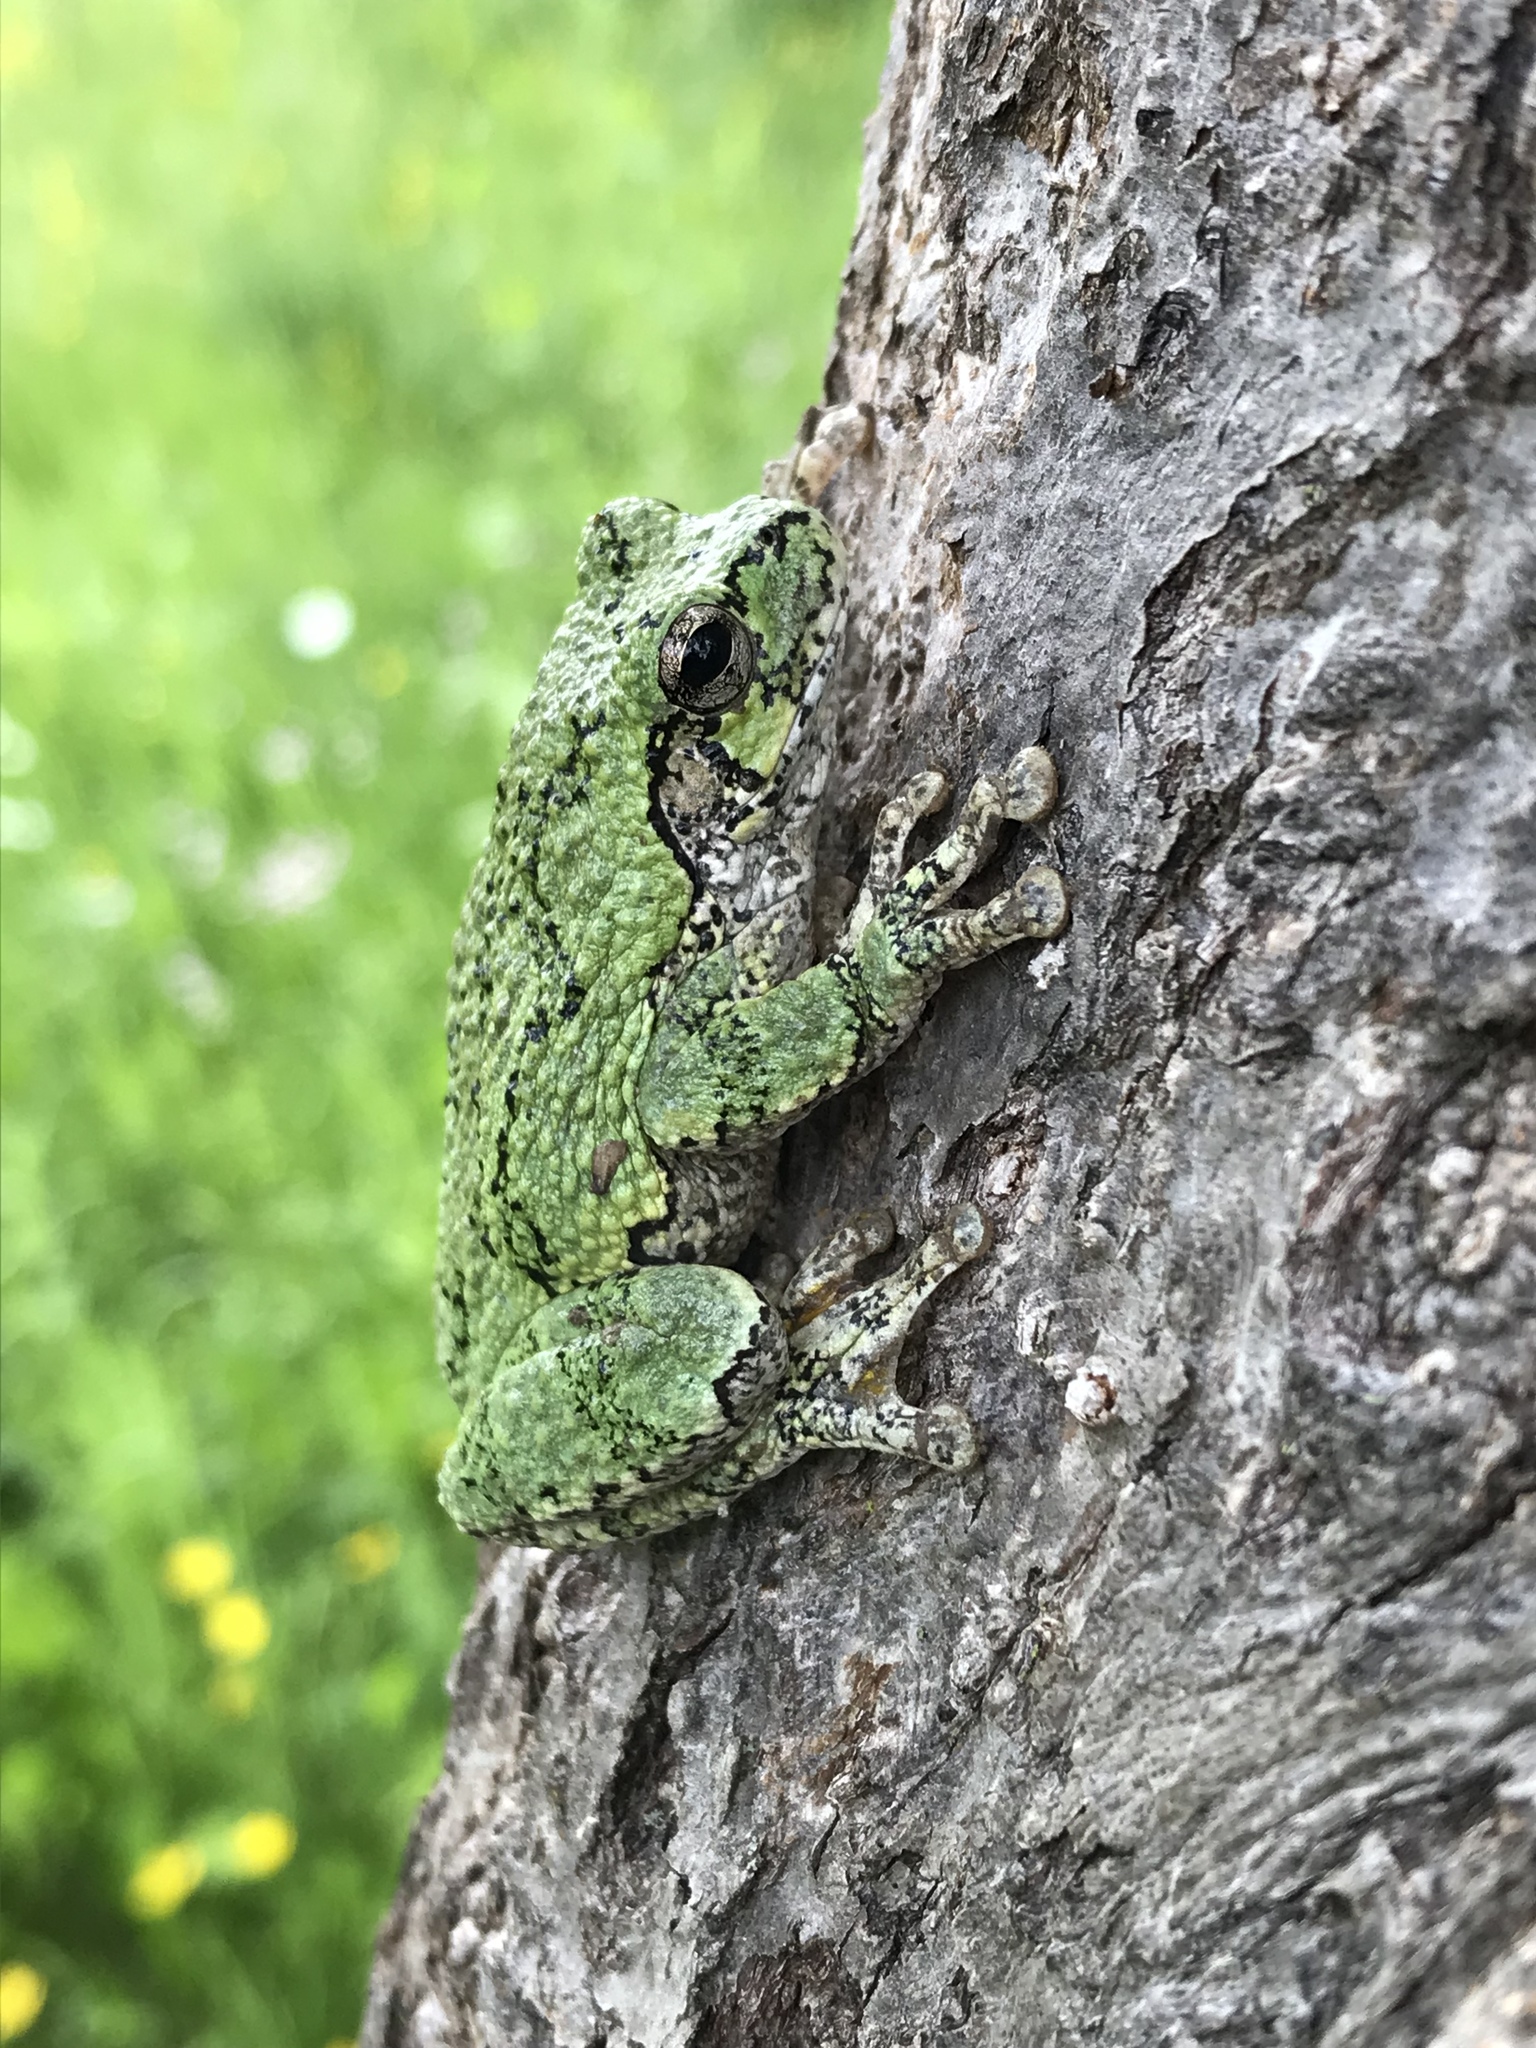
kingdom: Animalia
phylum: Chordata
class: Amphibia
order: Anura
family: Hylidae
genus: Dryophytes
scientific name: Dryophytes versicolor
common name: Gray treefrog
